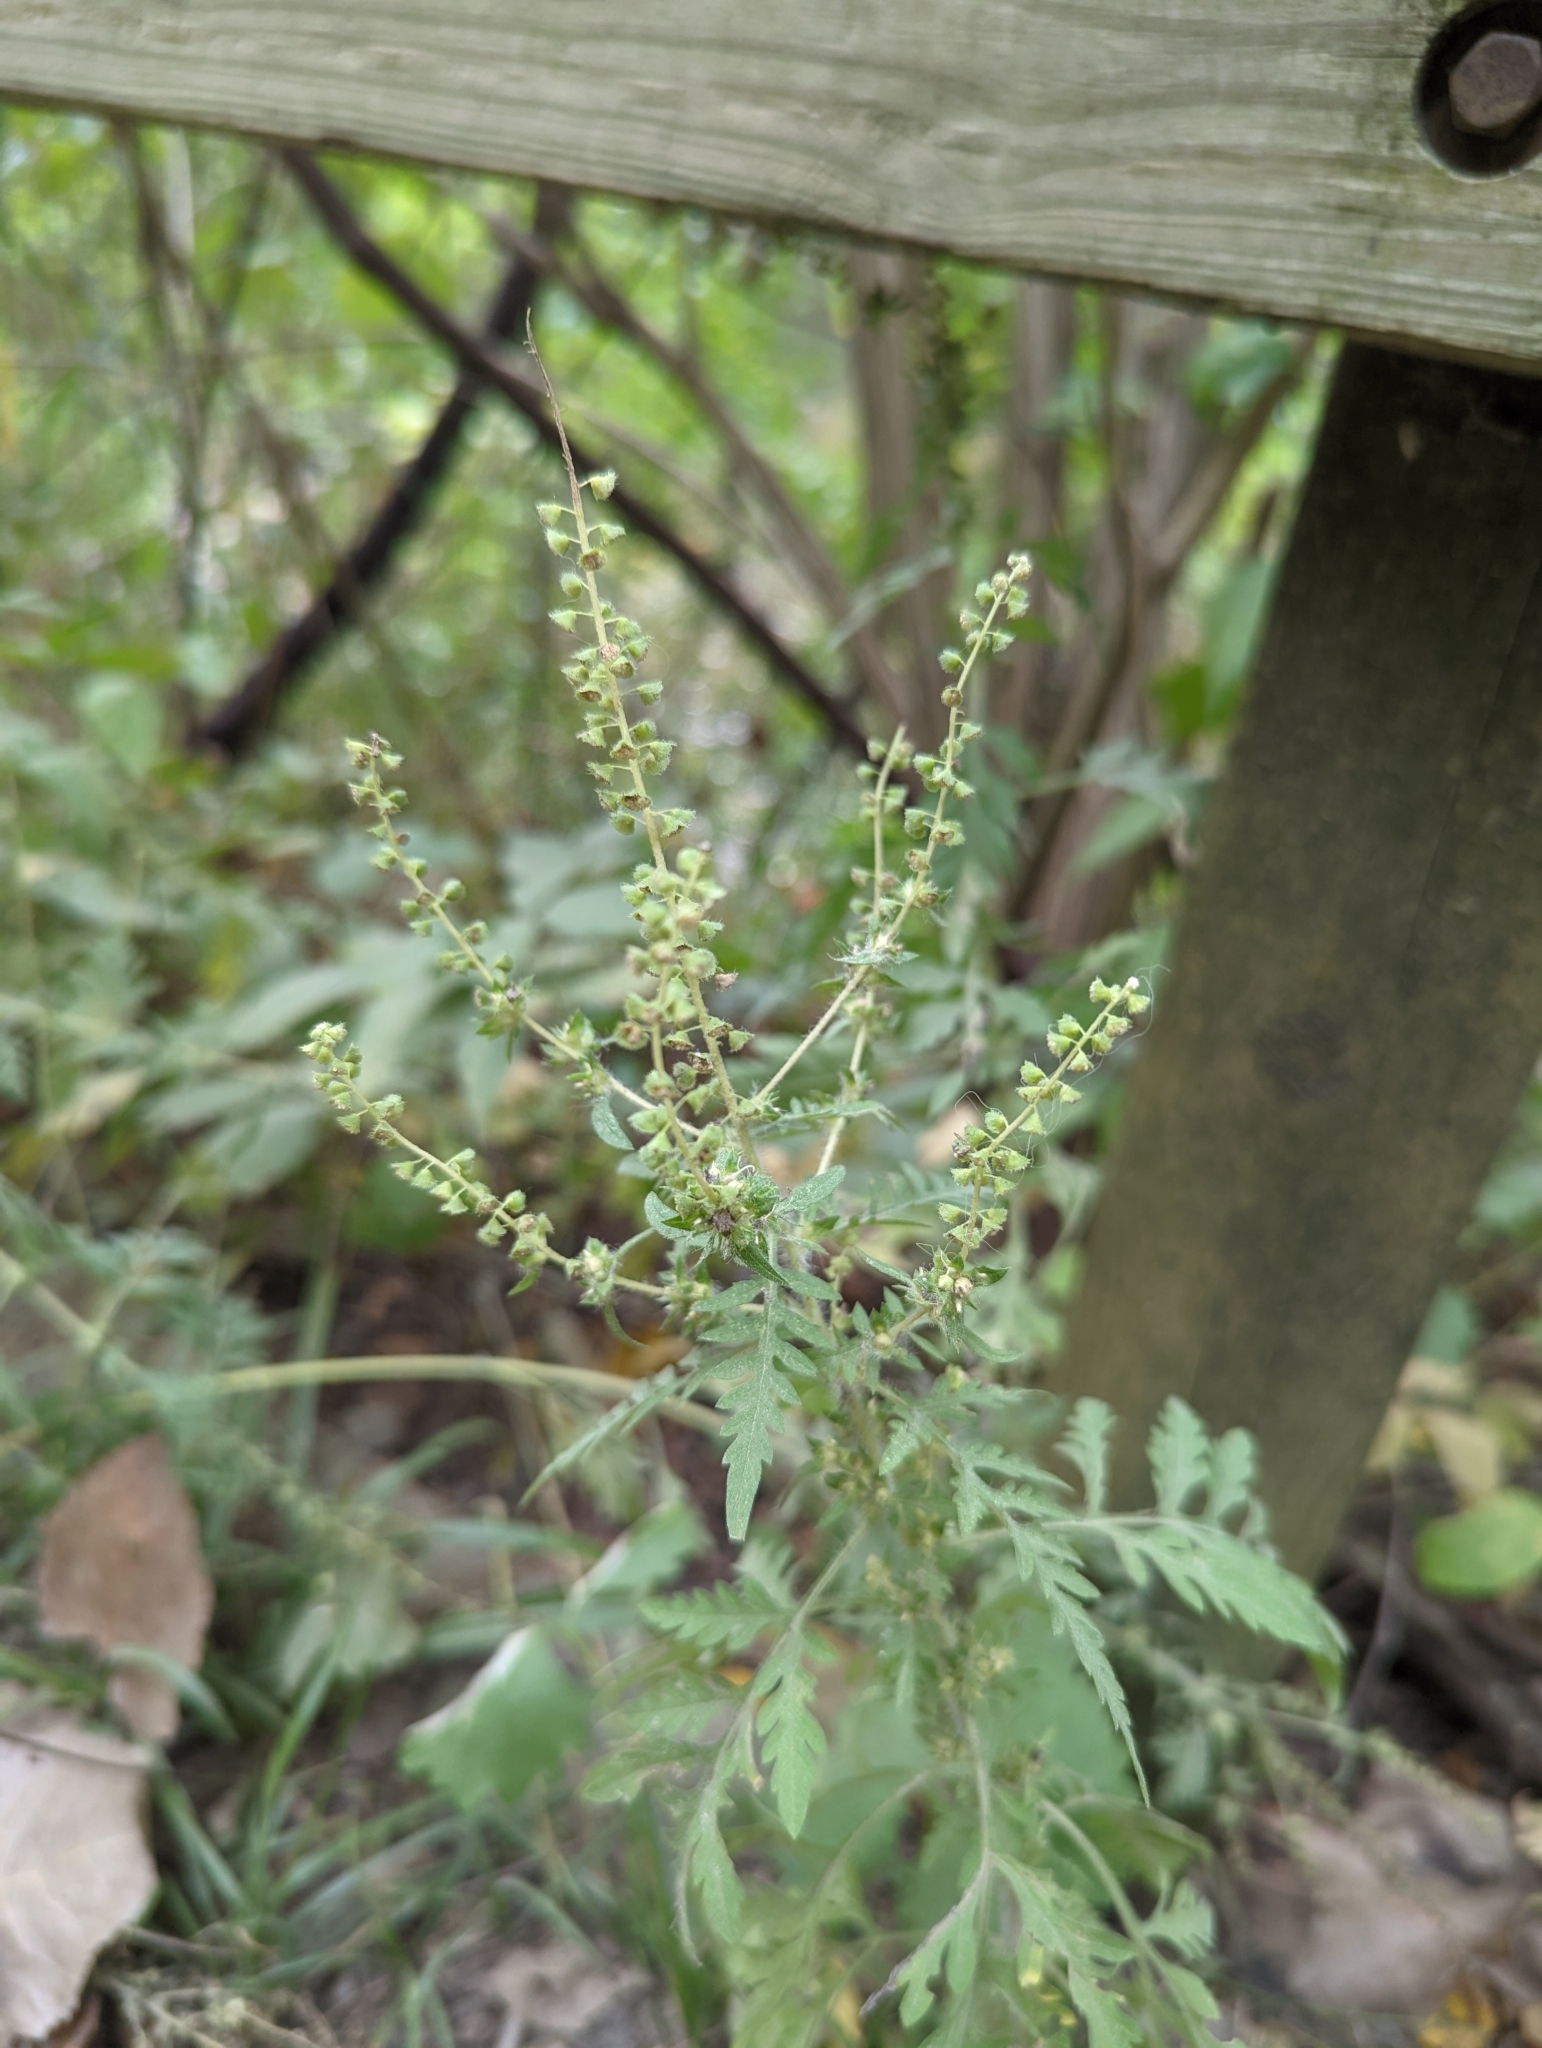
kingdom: Plantae
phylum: Tracheophyta
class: Magnoliopsida
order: Asterales
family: Asteraceae
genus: Ambrosia
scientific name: Ambrosia artemisiifolia
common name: Annual ragweed
